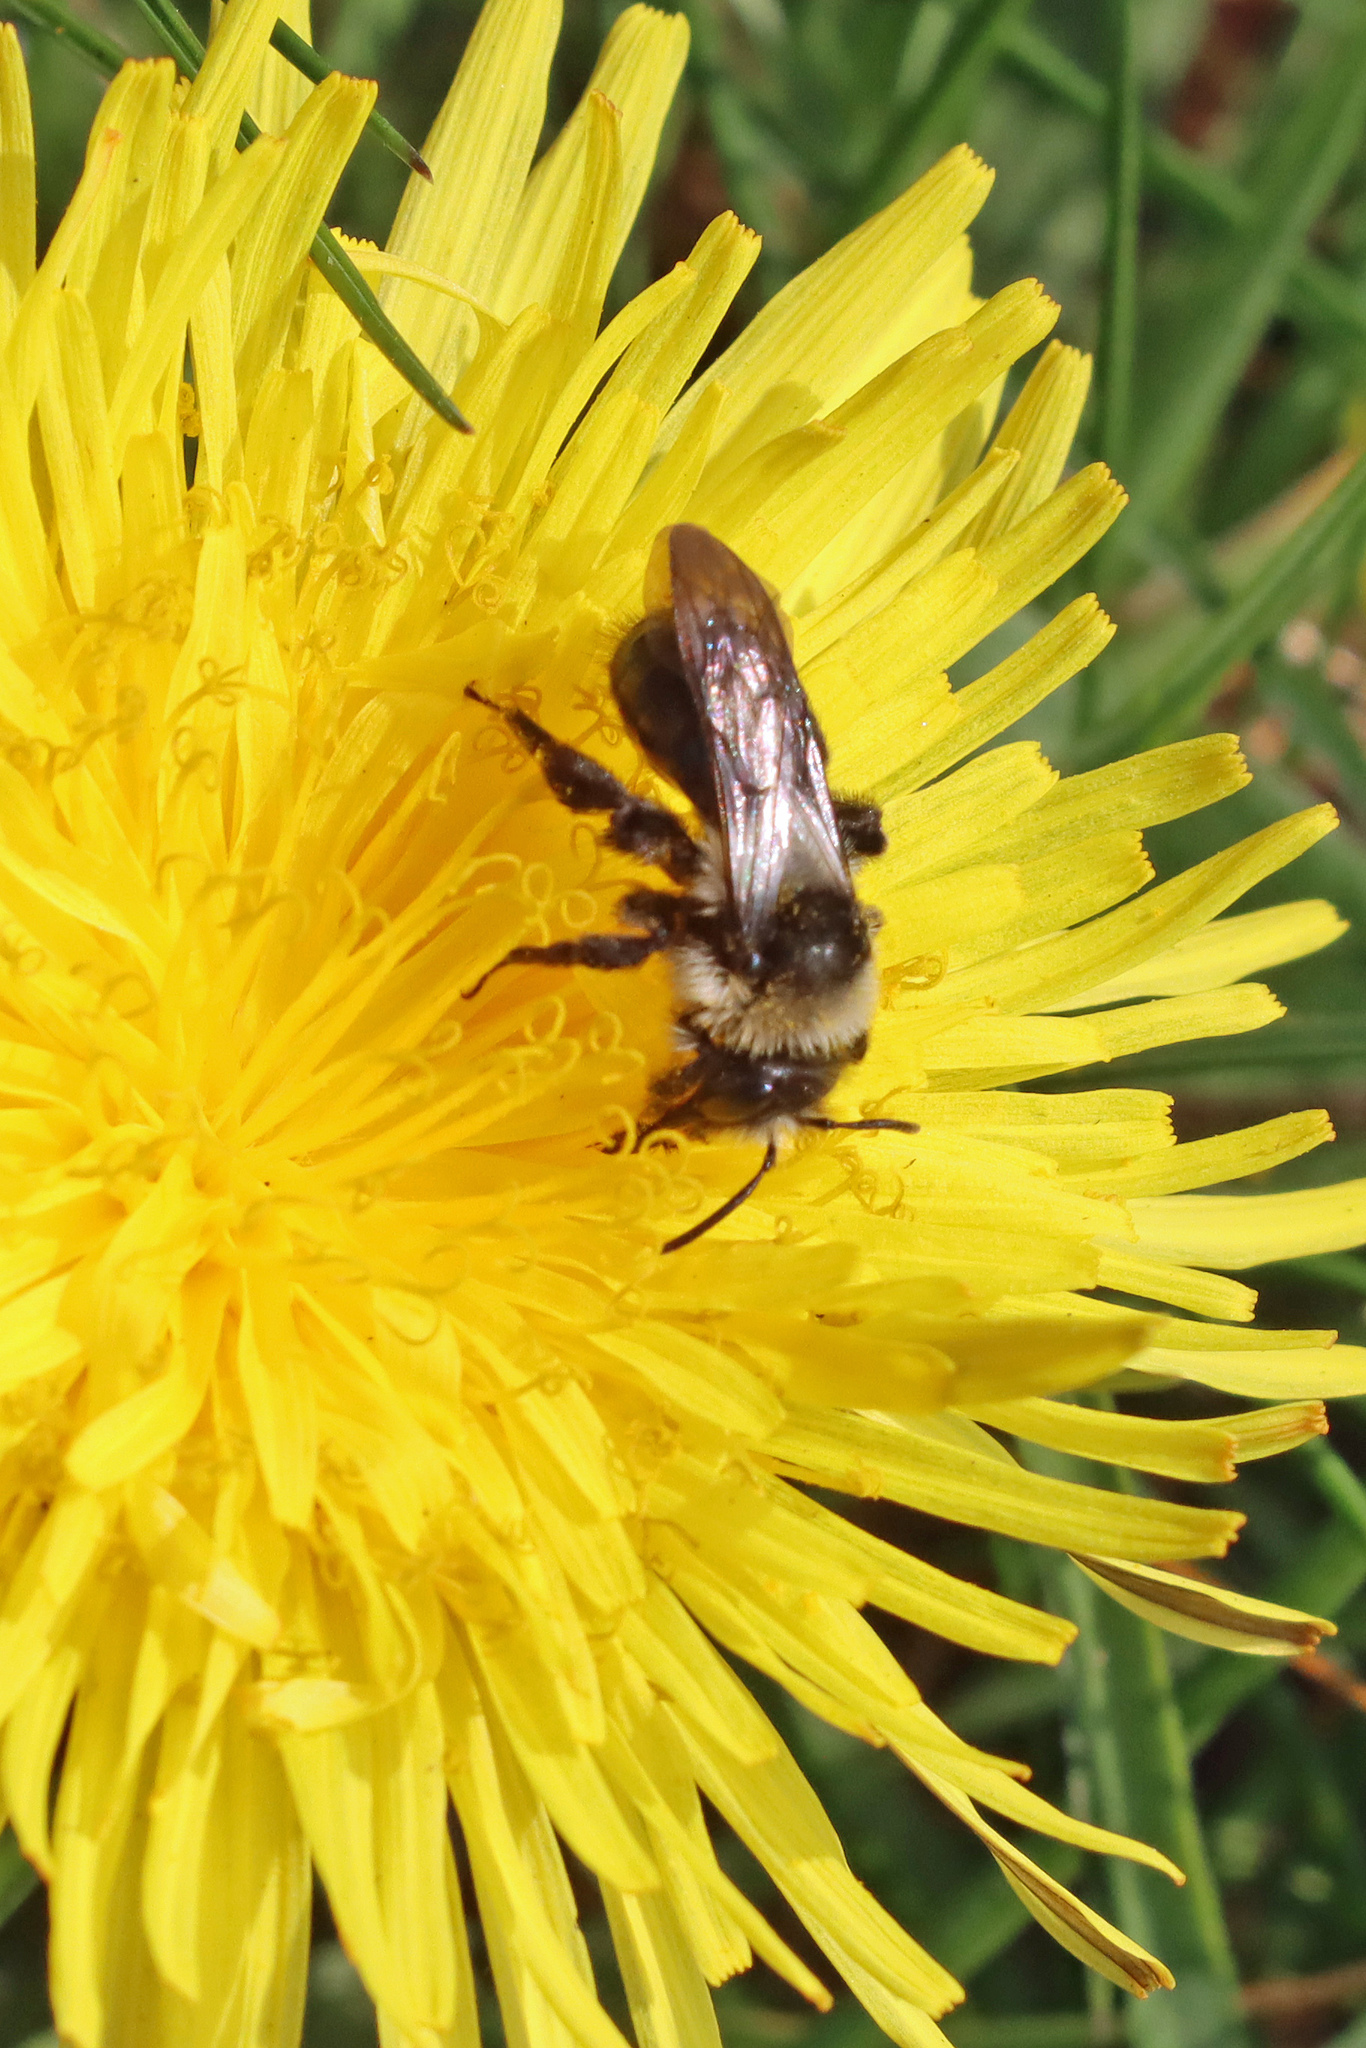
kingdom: Animalia
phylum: Arthropoda
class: Insecta
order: Hymenoptera
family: Andrenidae
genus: Andrena
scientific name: Andrena cineraria
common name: Ashy mining bee
